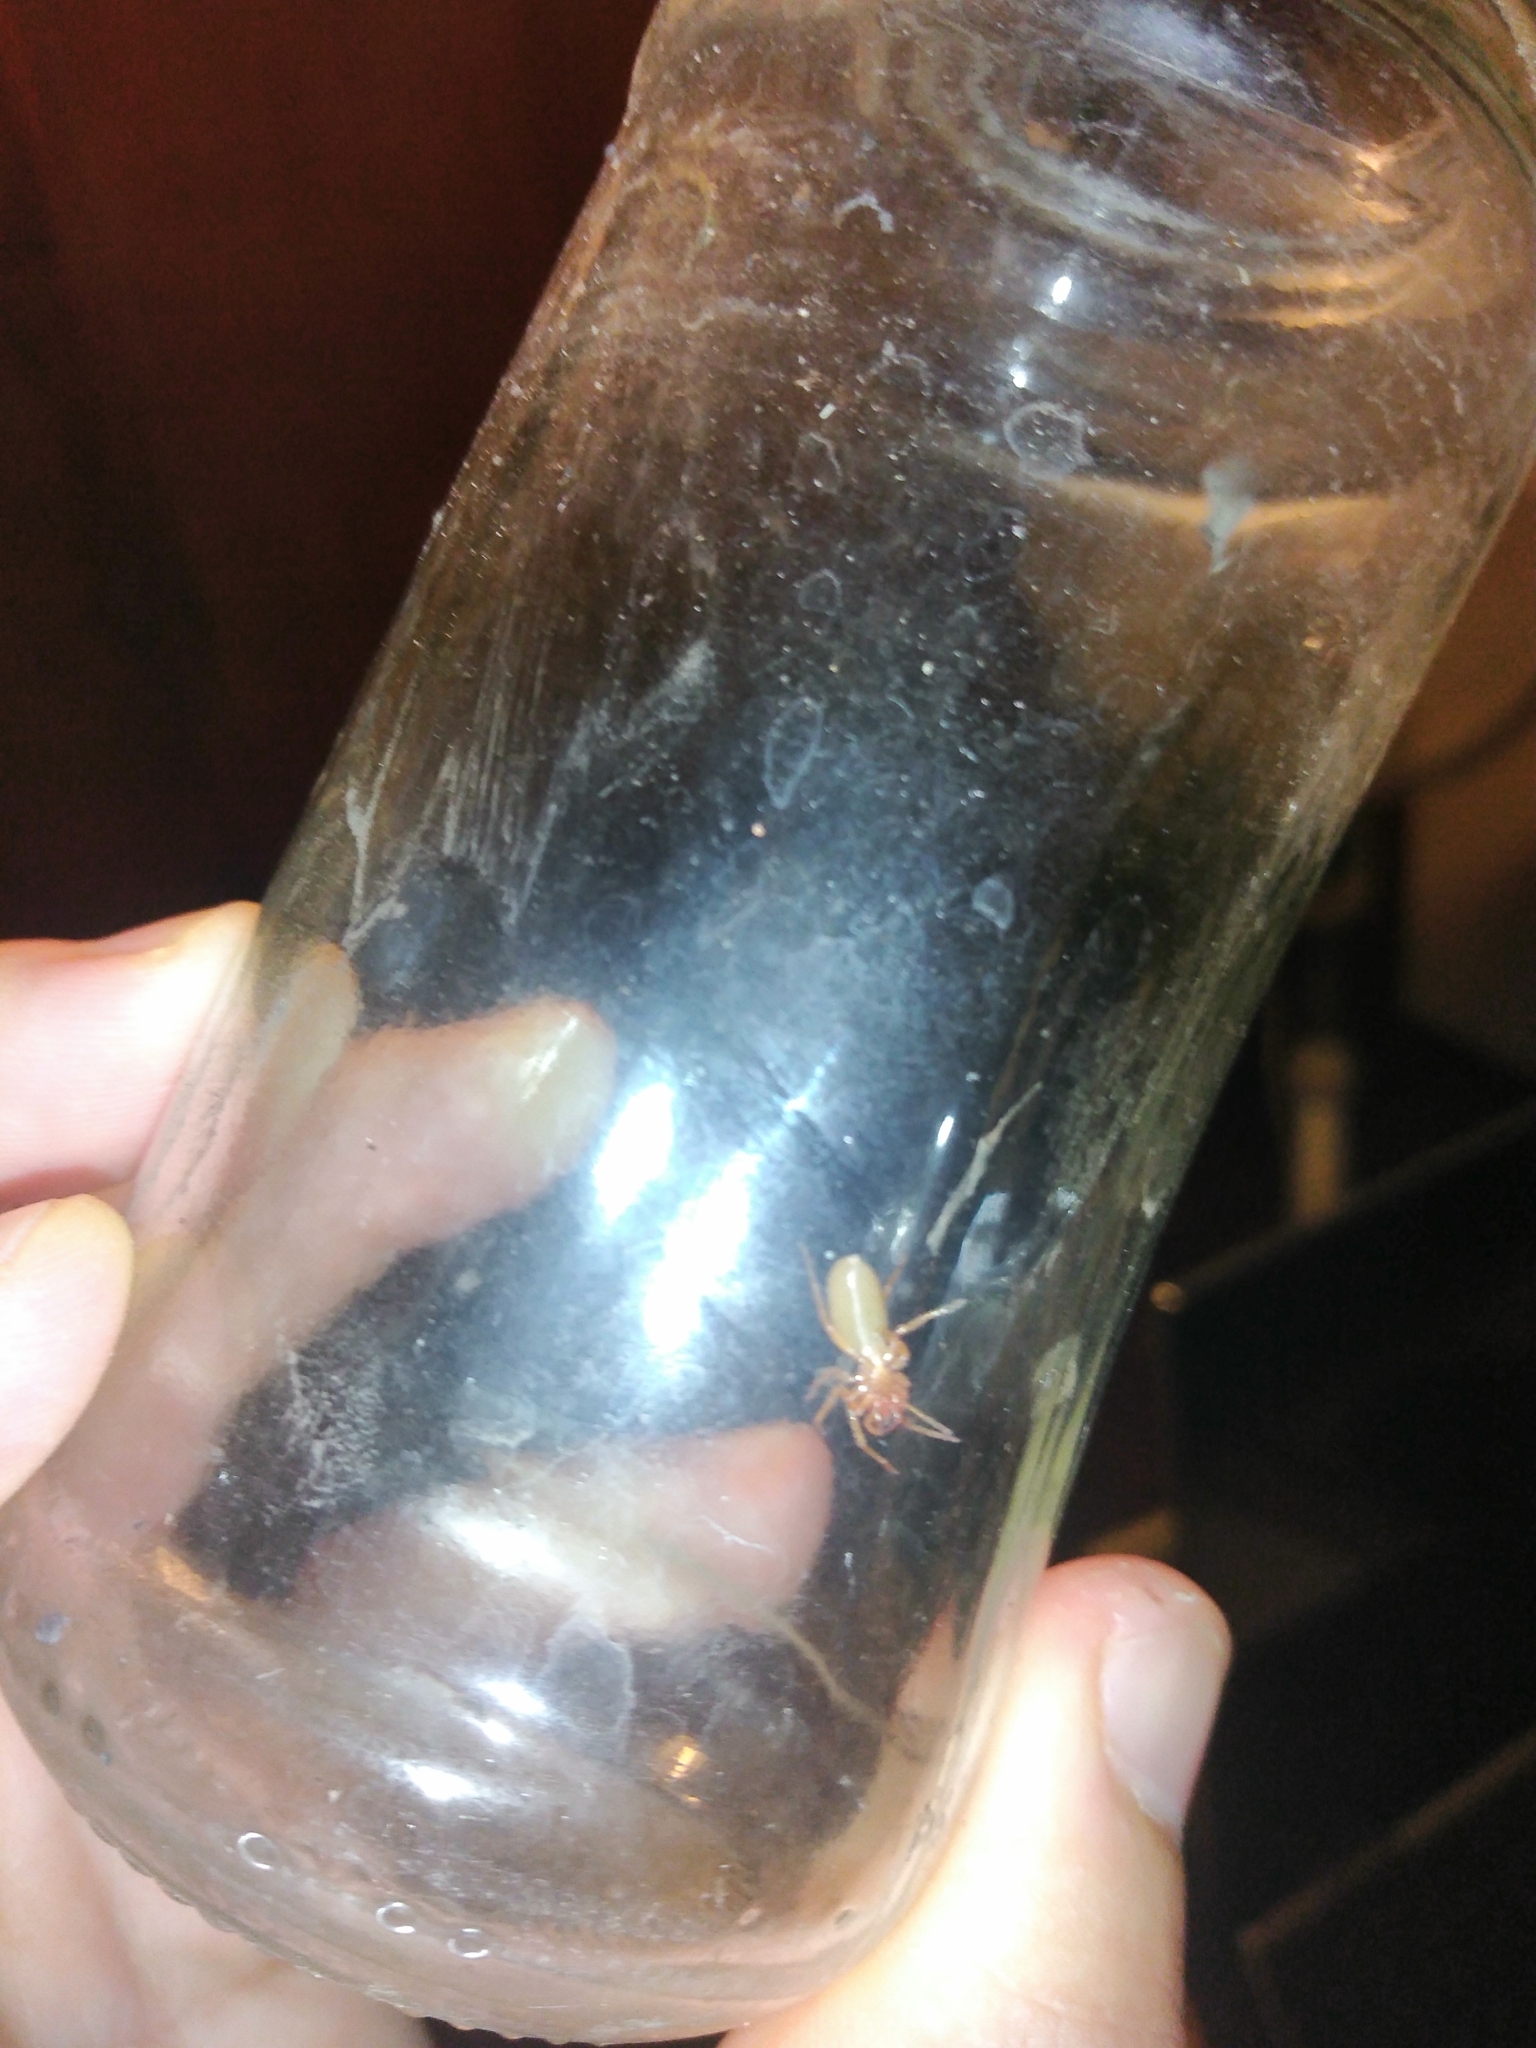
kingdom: Animalia
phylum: Arthropoda
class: Arachnida
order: Araneae
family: Dysderidae
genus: Dysdera
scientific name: Dysdera crocata
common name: Woodlouse spider
